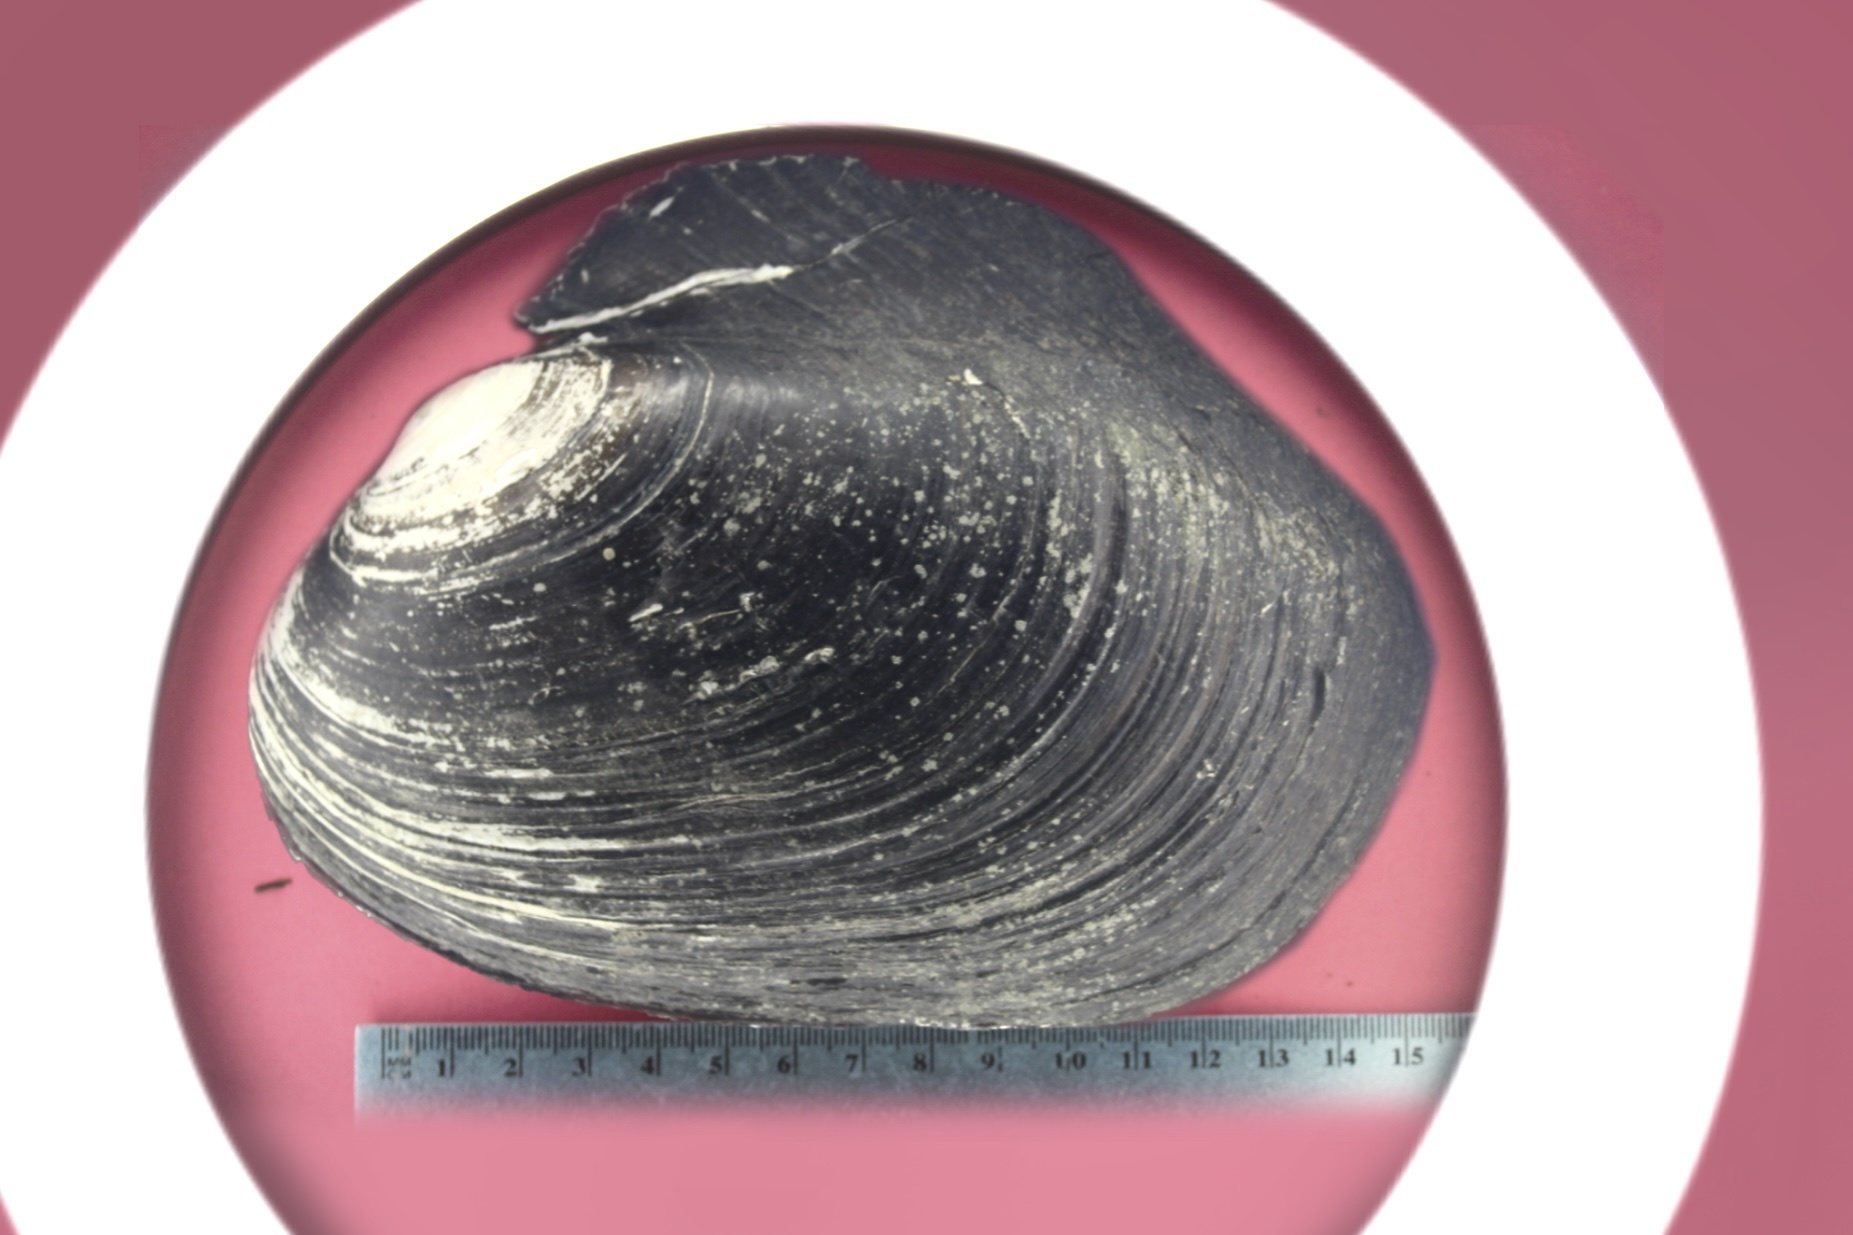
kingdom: Animalia
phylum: Mollusca
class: Bivalvia
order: Unionida
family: Unionidae
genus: Potamilus
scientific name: Potamilus alatus
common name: Pink heelsplitter
